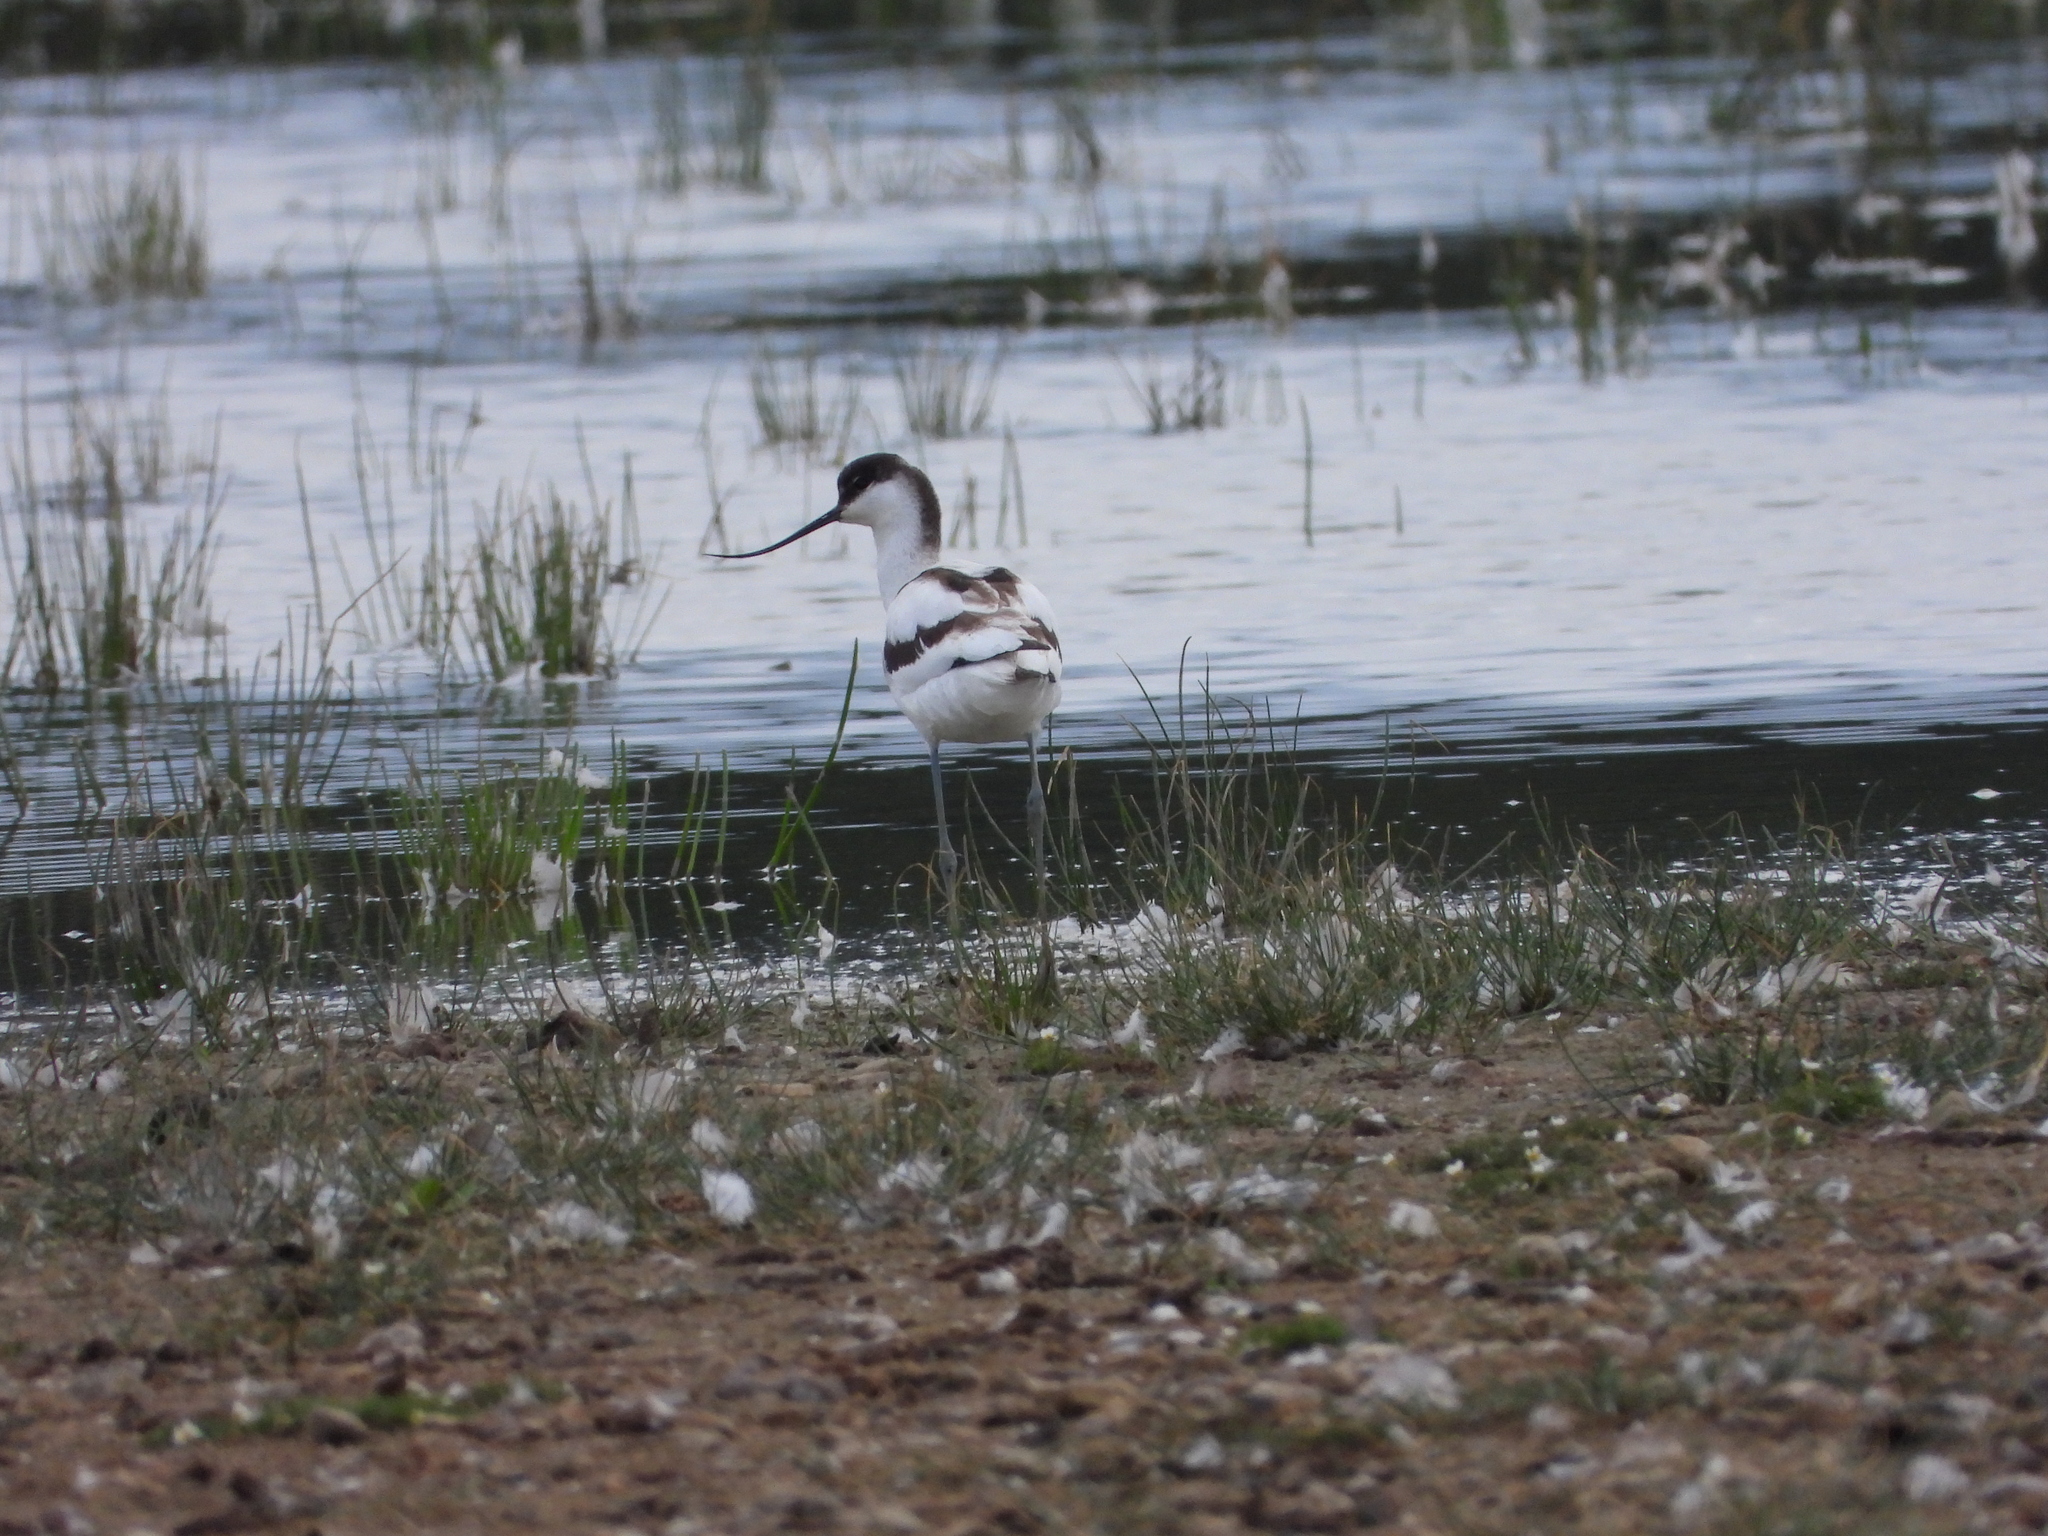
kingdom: Animalia
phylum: Chordata
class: Aves
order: Charadriiformes
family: Recurvirostridae
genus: Recurvirostra
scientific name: Recurvirostra avosetta
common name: Pied avocet
